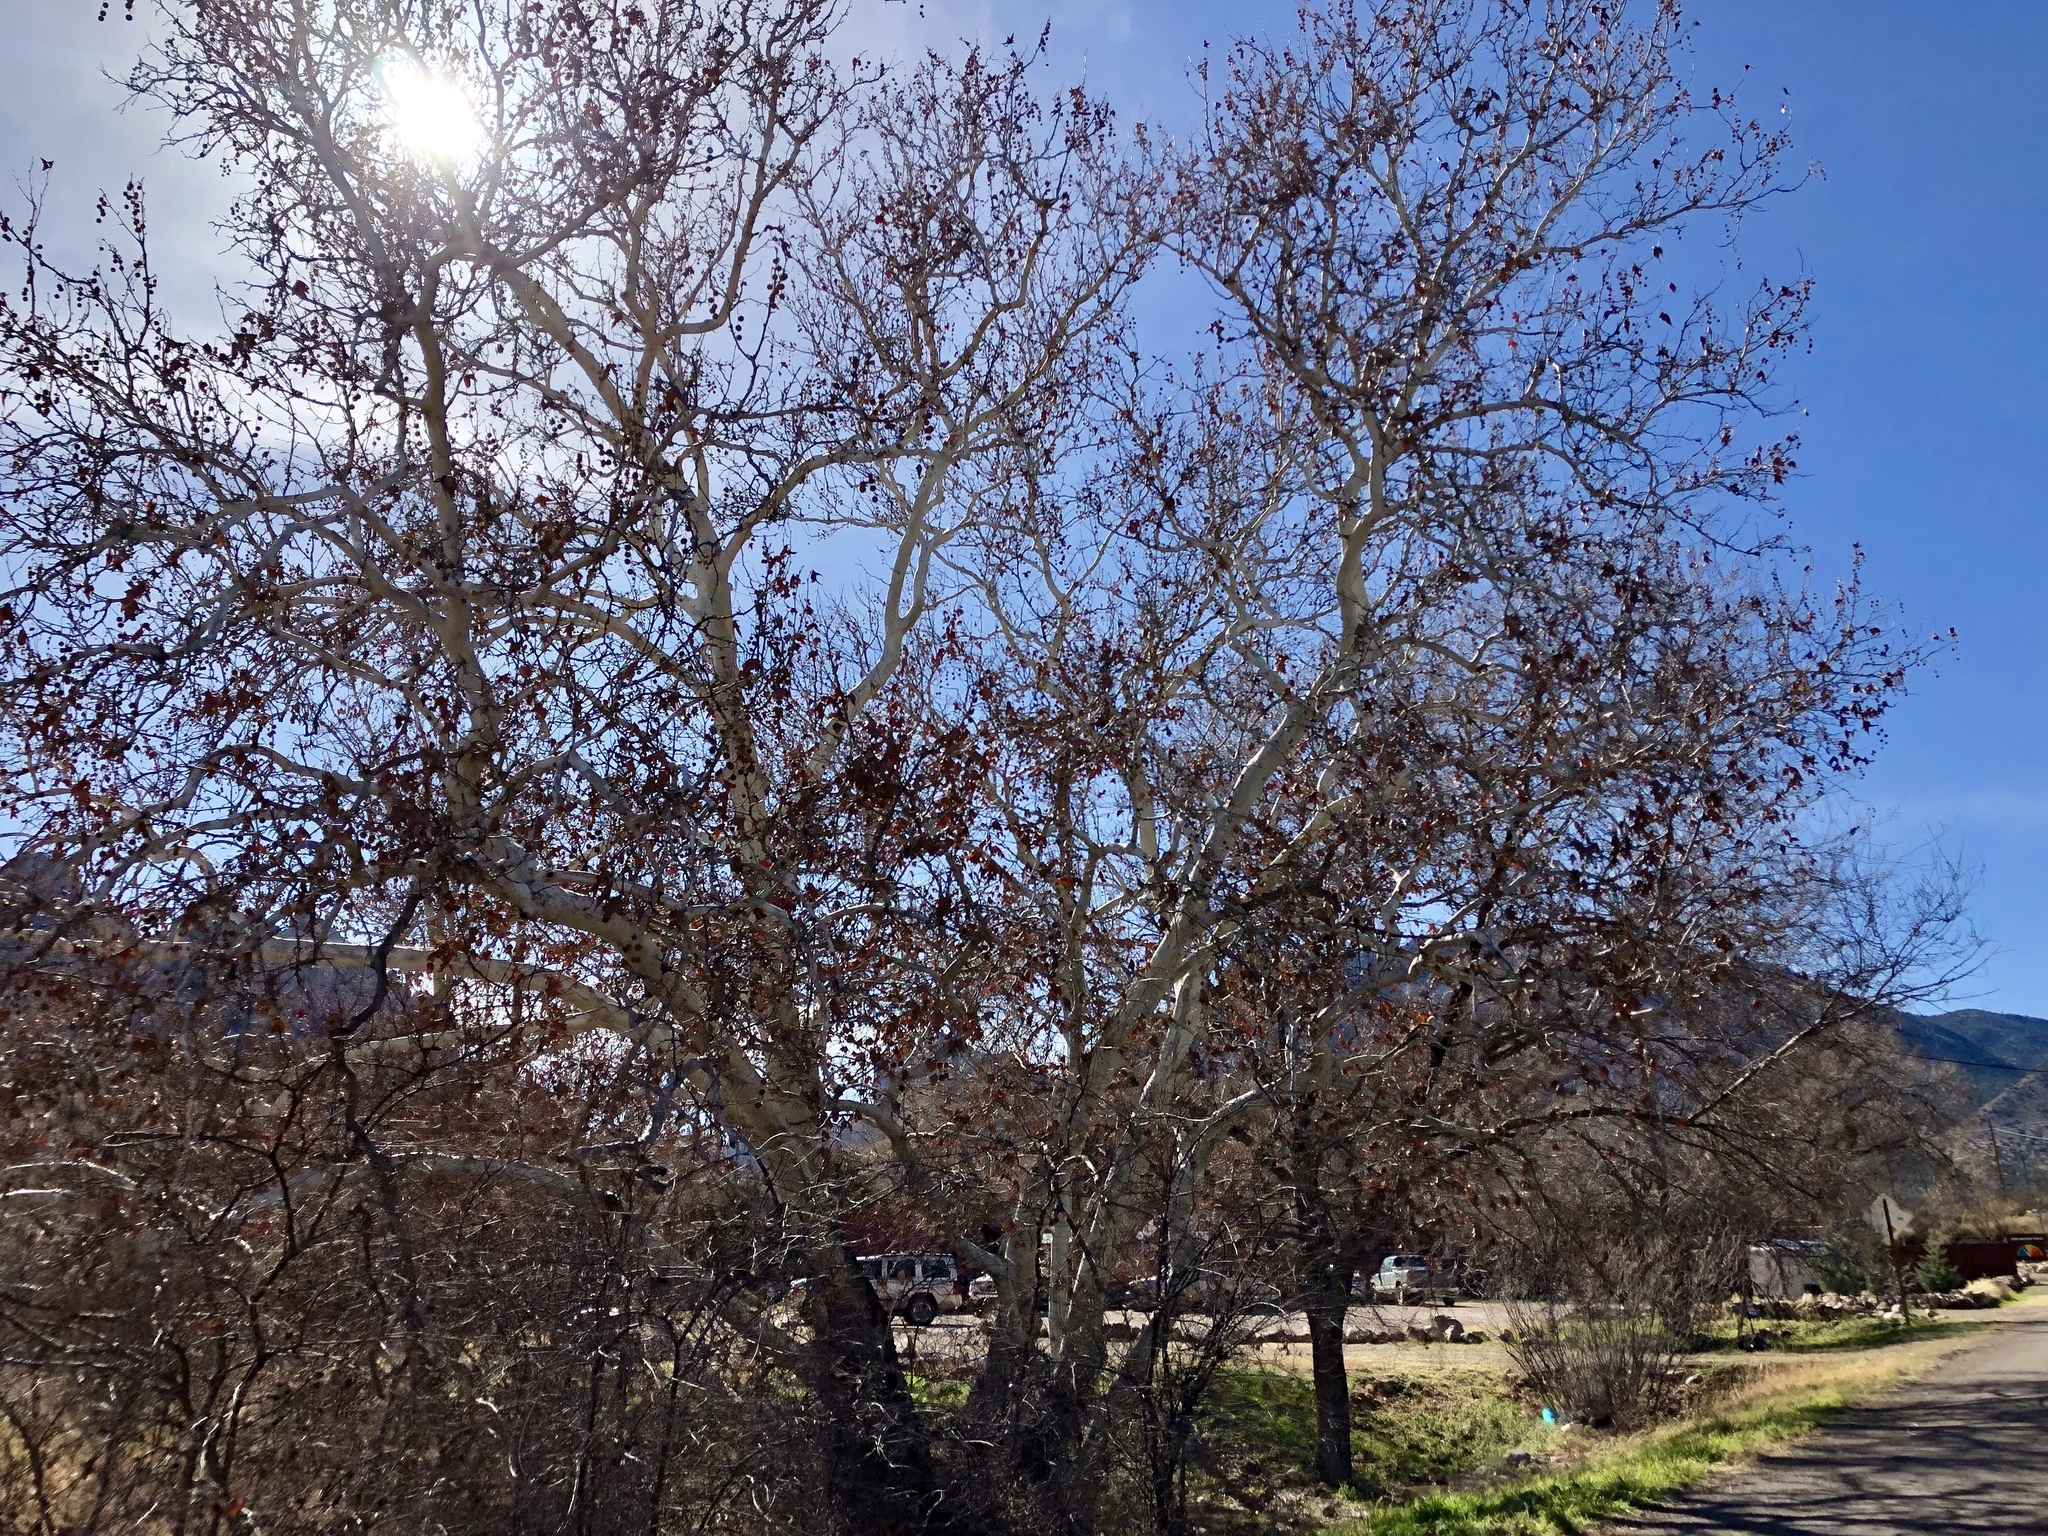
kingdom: Plantae
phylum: Tracheophyta
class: Magnoliopsida
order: Proteales
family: Platanaceae
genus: Platanus
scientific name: Platanus wrightii
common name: Arizona sycamore
